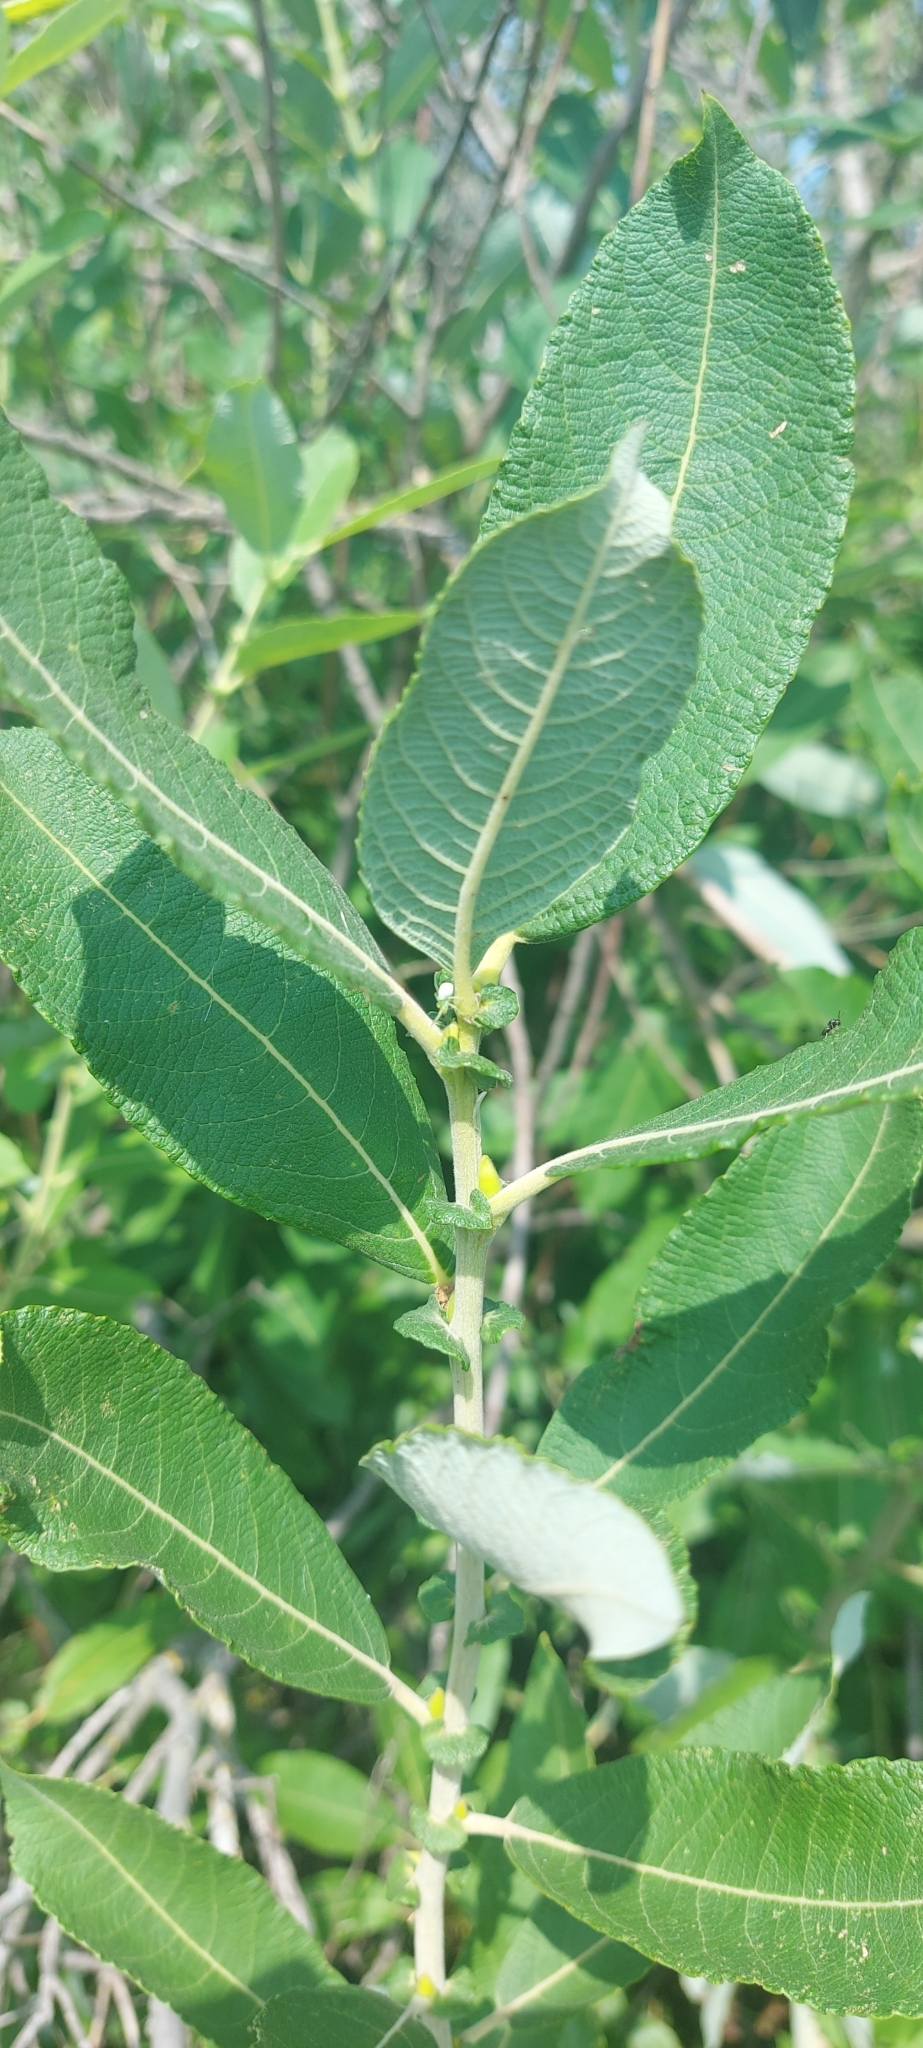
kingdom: Plantae
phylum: Tracheophyta
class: Magnoliopsida
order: Malpighiales
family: Salicaceae
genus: Salix
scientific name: Salix cinerea
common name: Common sallow
